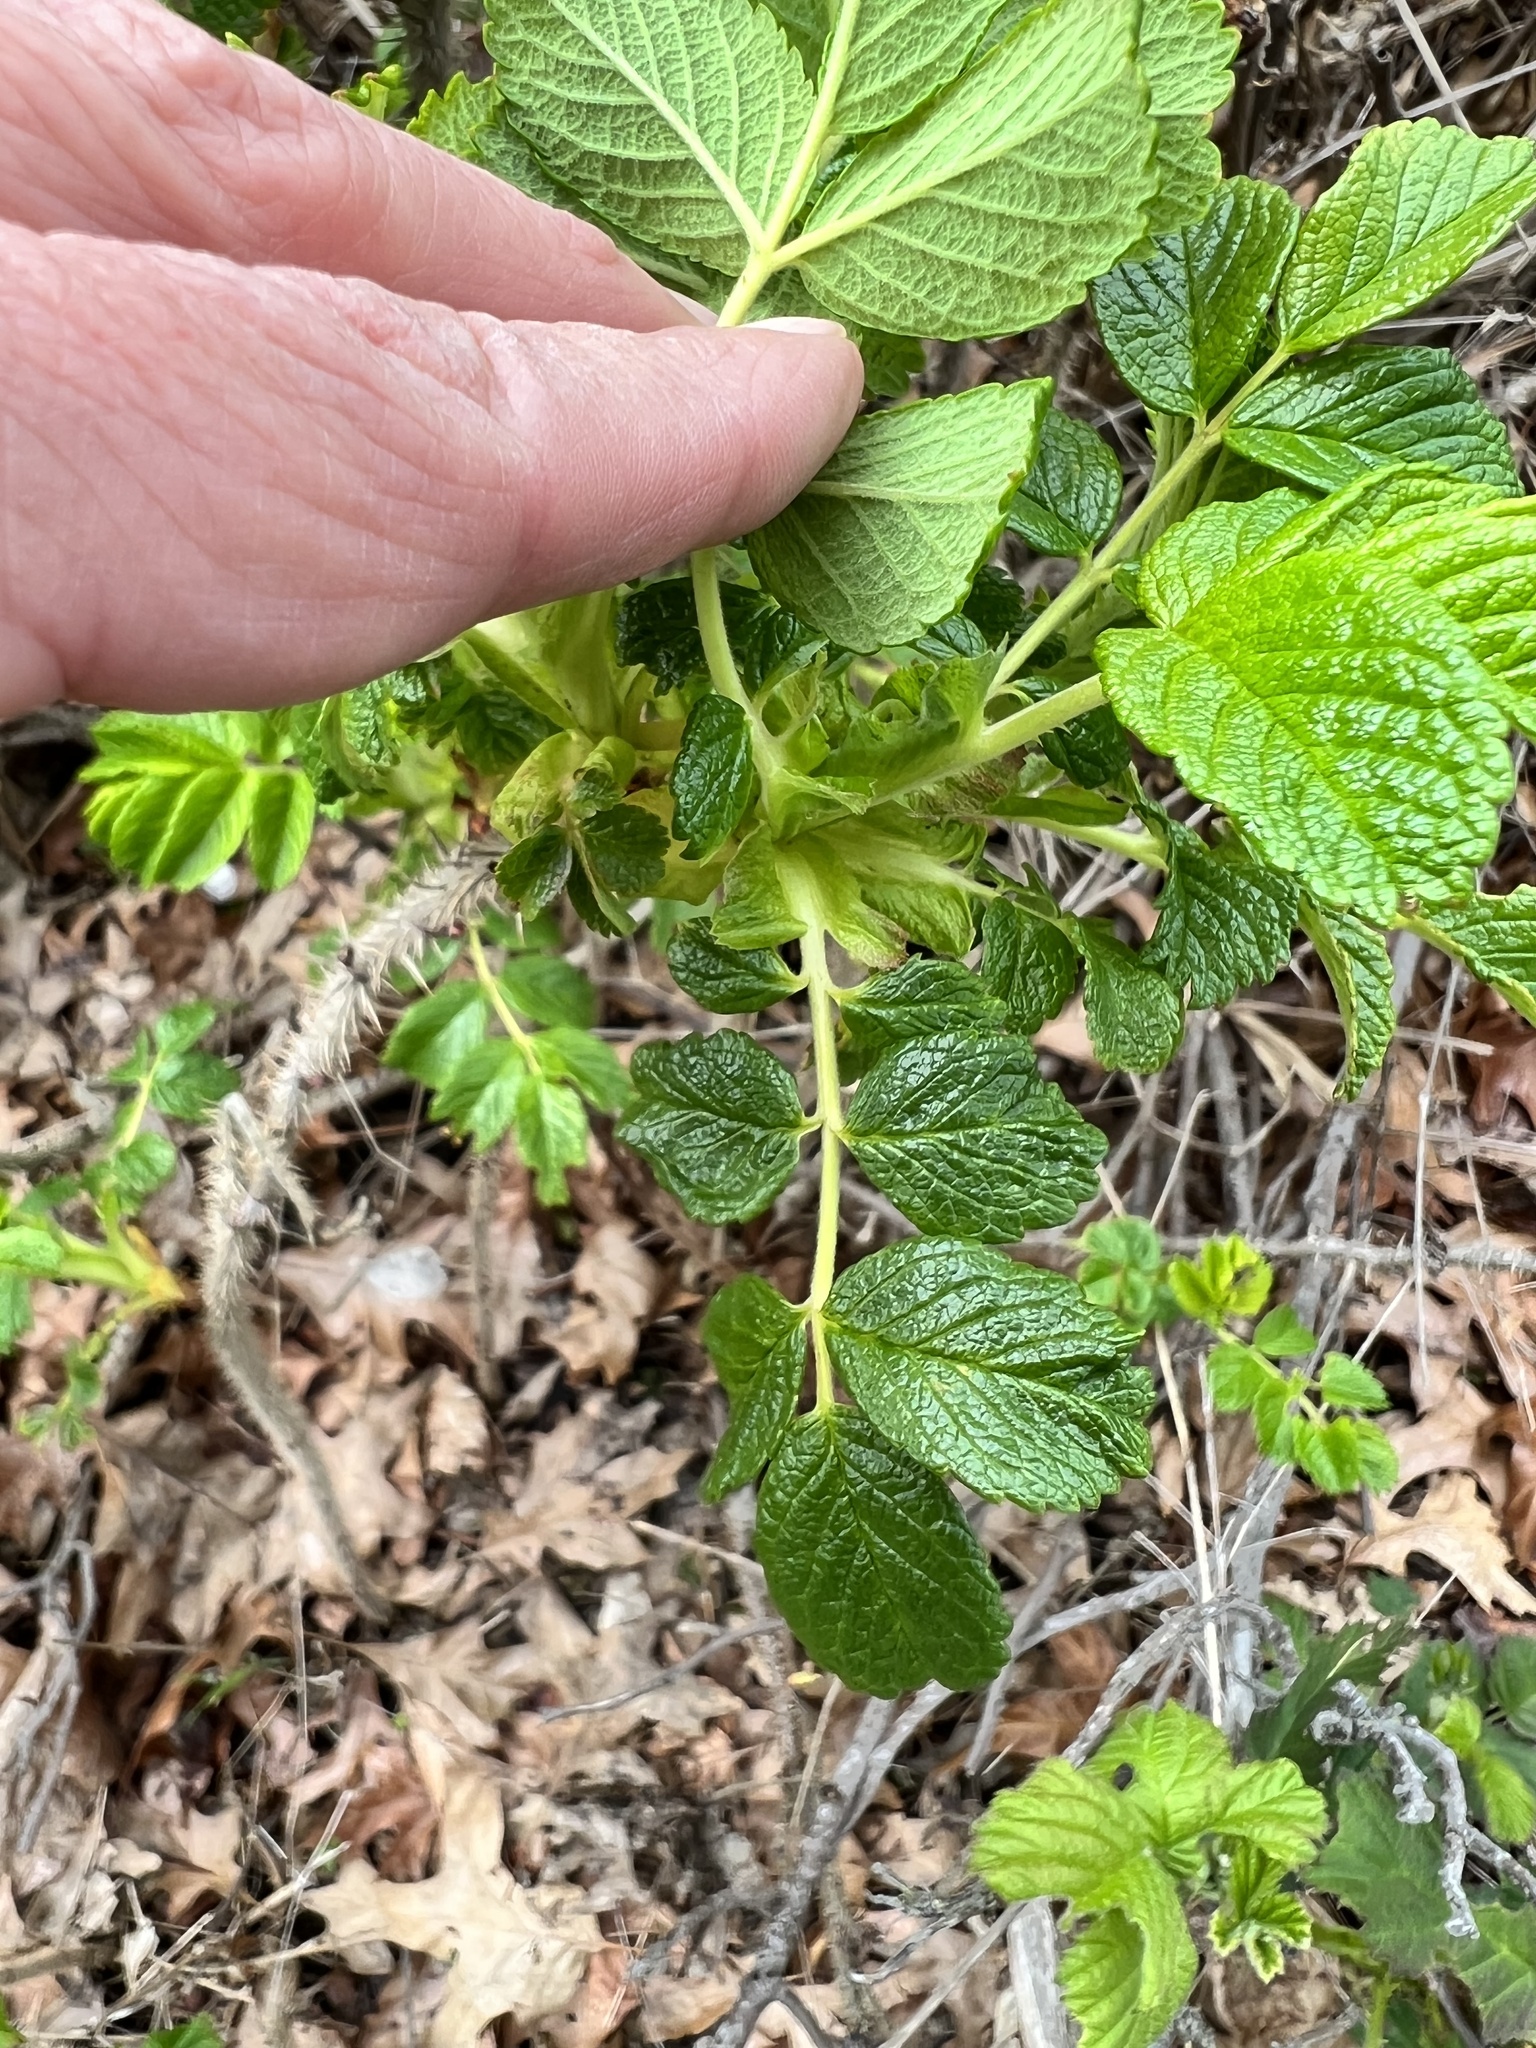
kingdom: Plantae
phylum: Tracheophyta
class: Magnoliopsida
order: Rosales
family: Rosaceae
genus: Rosa
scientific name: Rosa rugosa
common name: Japanese rose
